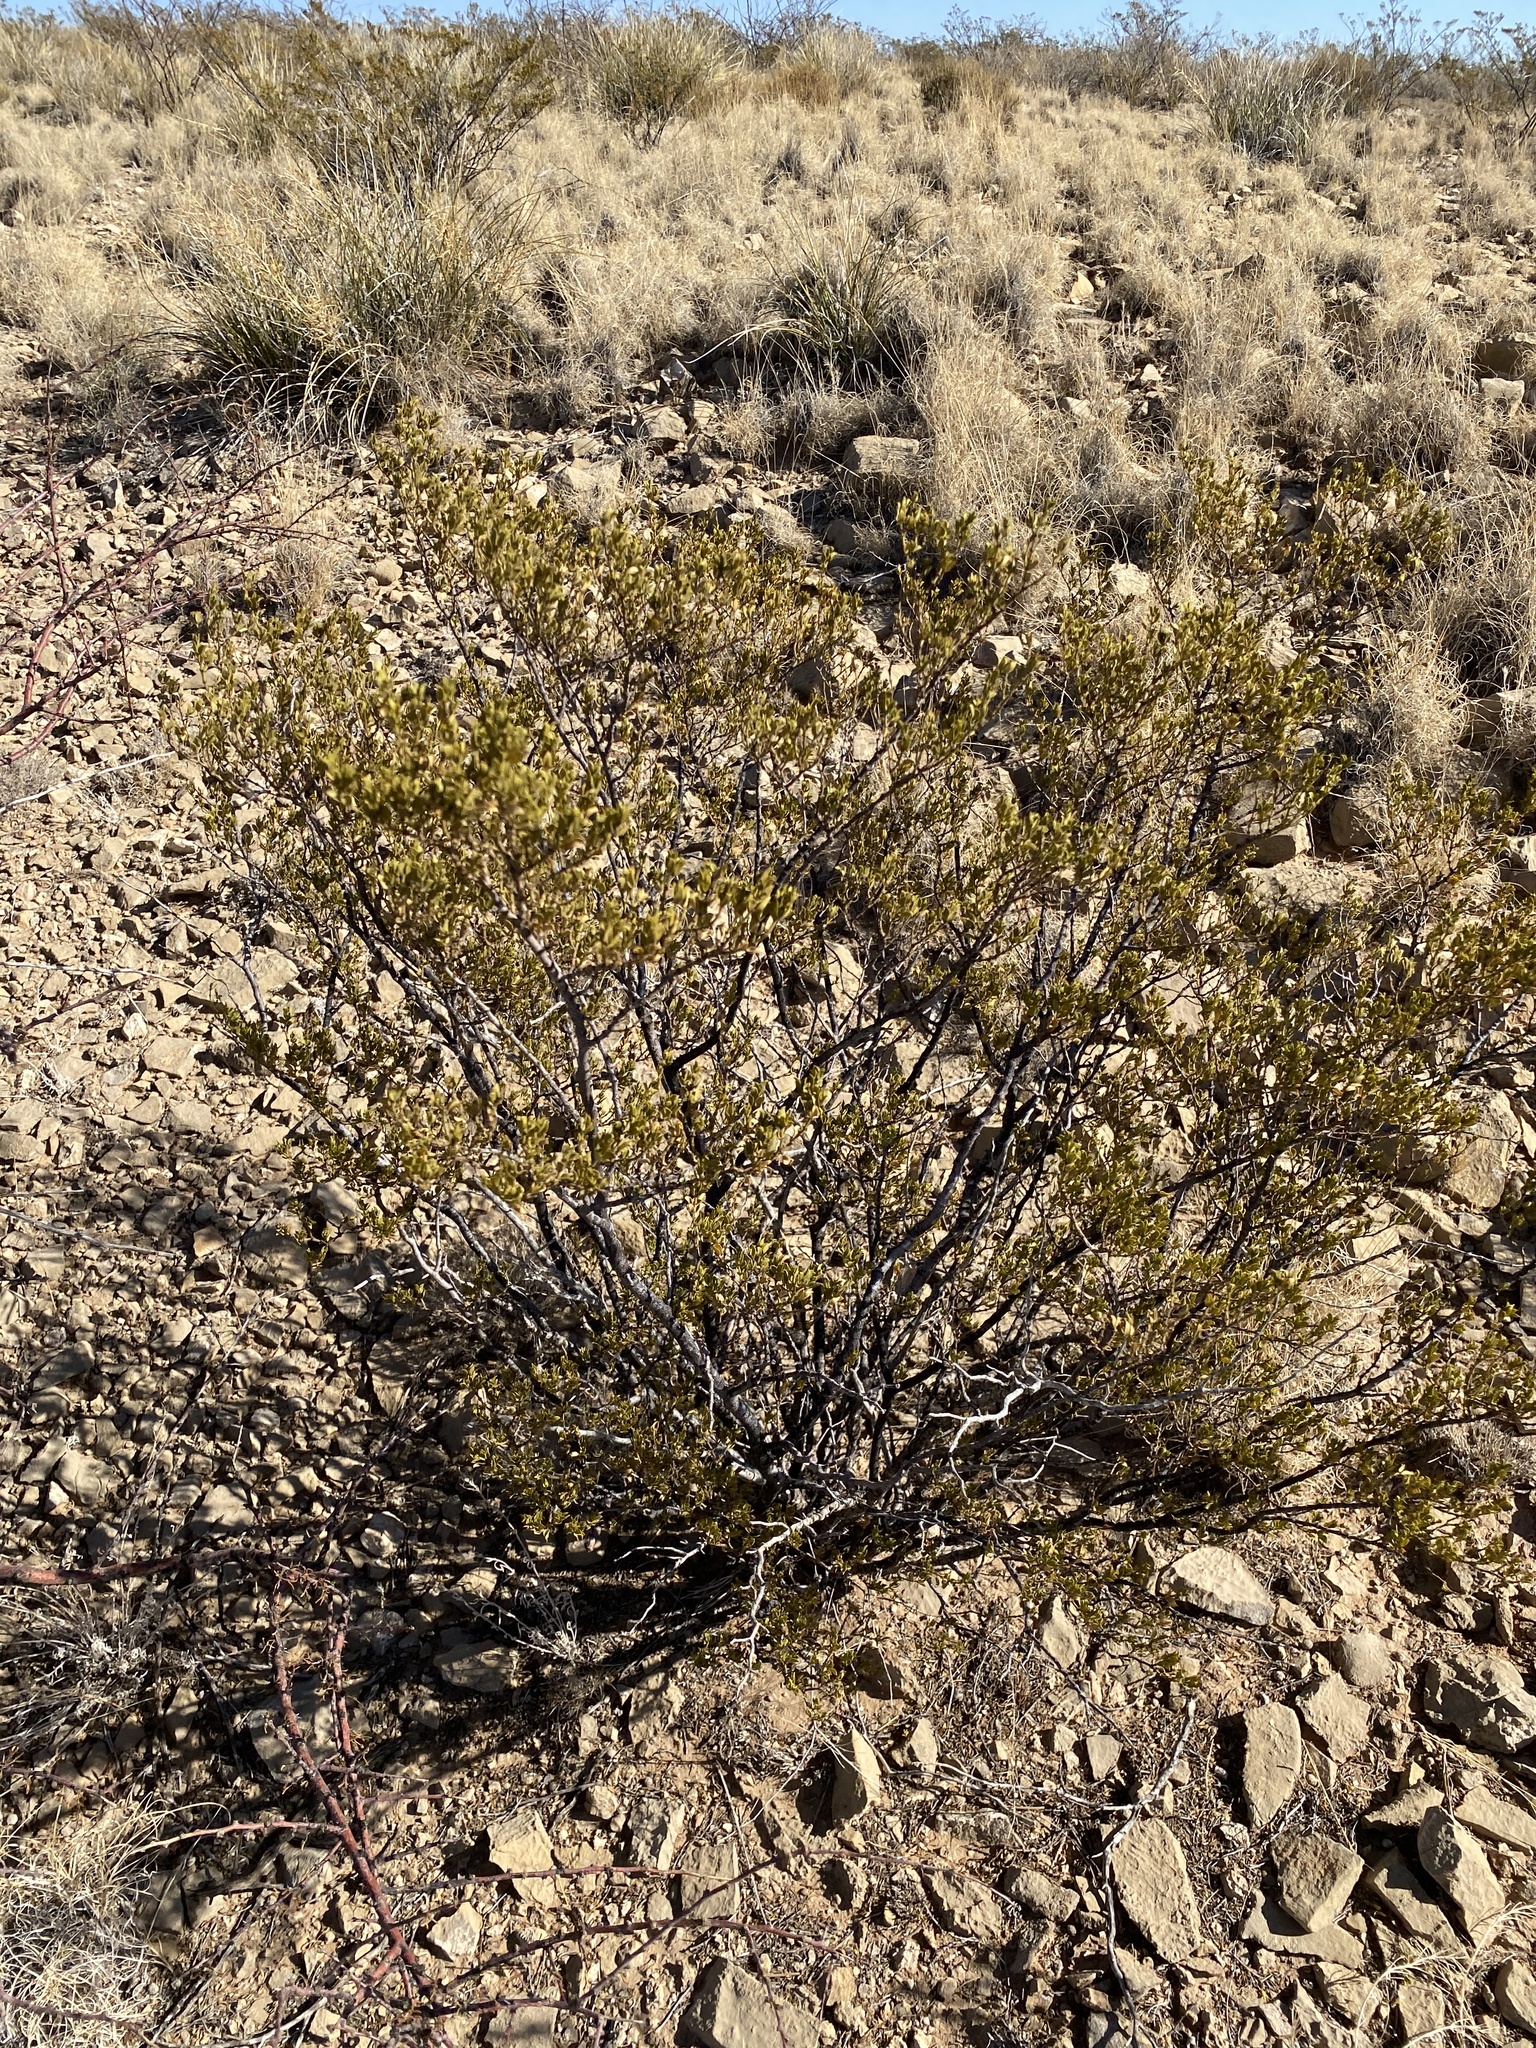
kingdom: Plantae
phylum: Tracheophyta
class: Magnoliopsida
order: Zygophyllales
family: Zygophyllaceae
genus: Larrea
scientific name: Larrea tridentata
